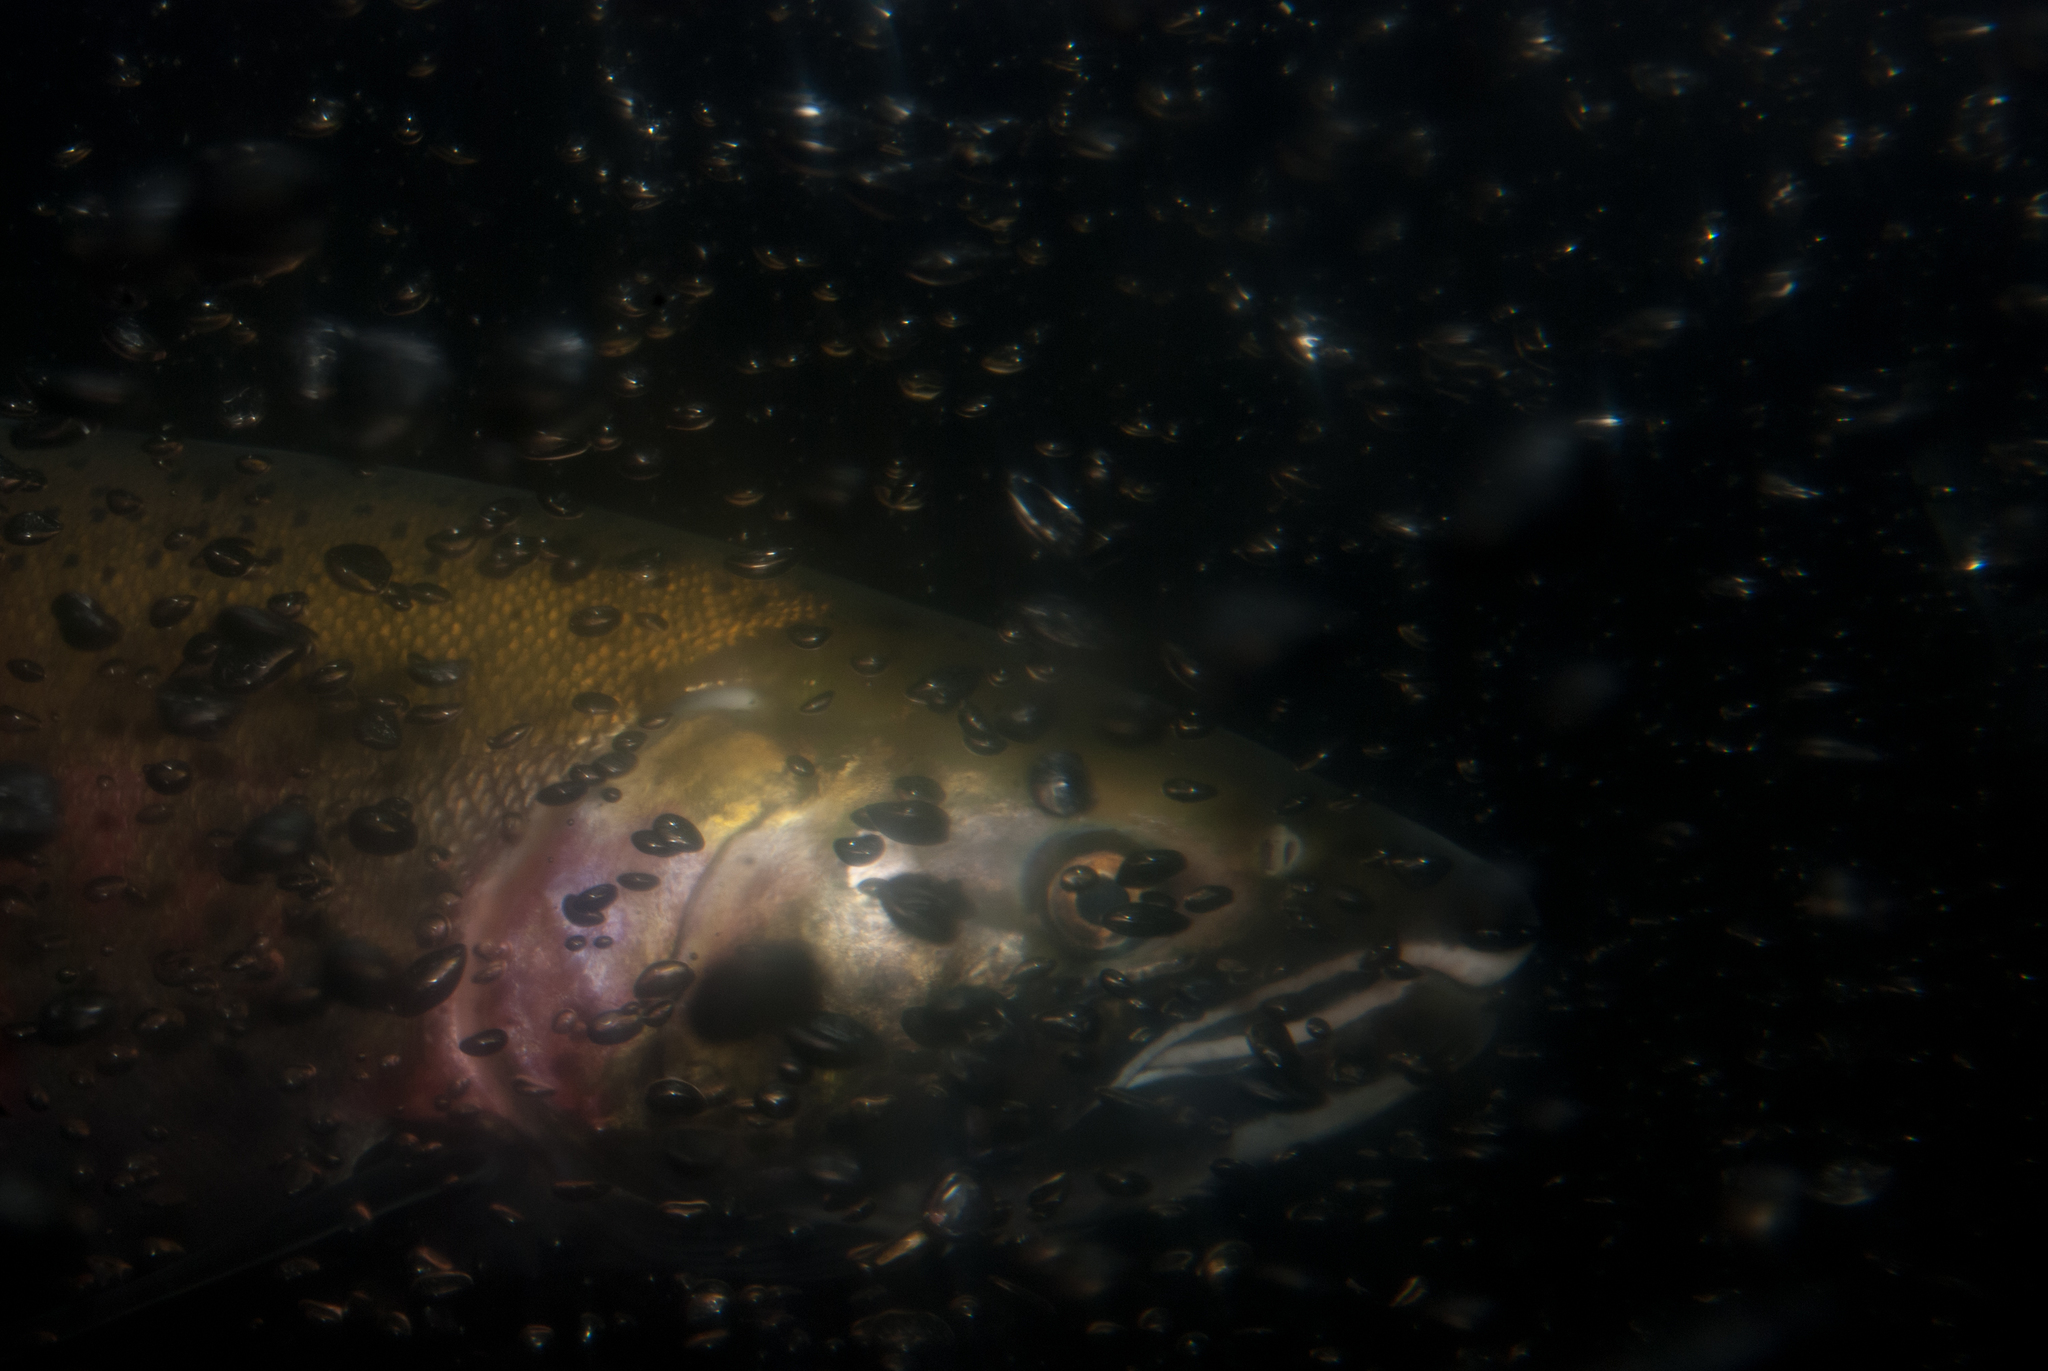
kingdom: Animalia
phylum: Chordata
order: Salmoniformes
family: Salmonidae
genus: Oncorhynchus
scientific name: Oncorhynchus kisutch
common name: Coho salmon
